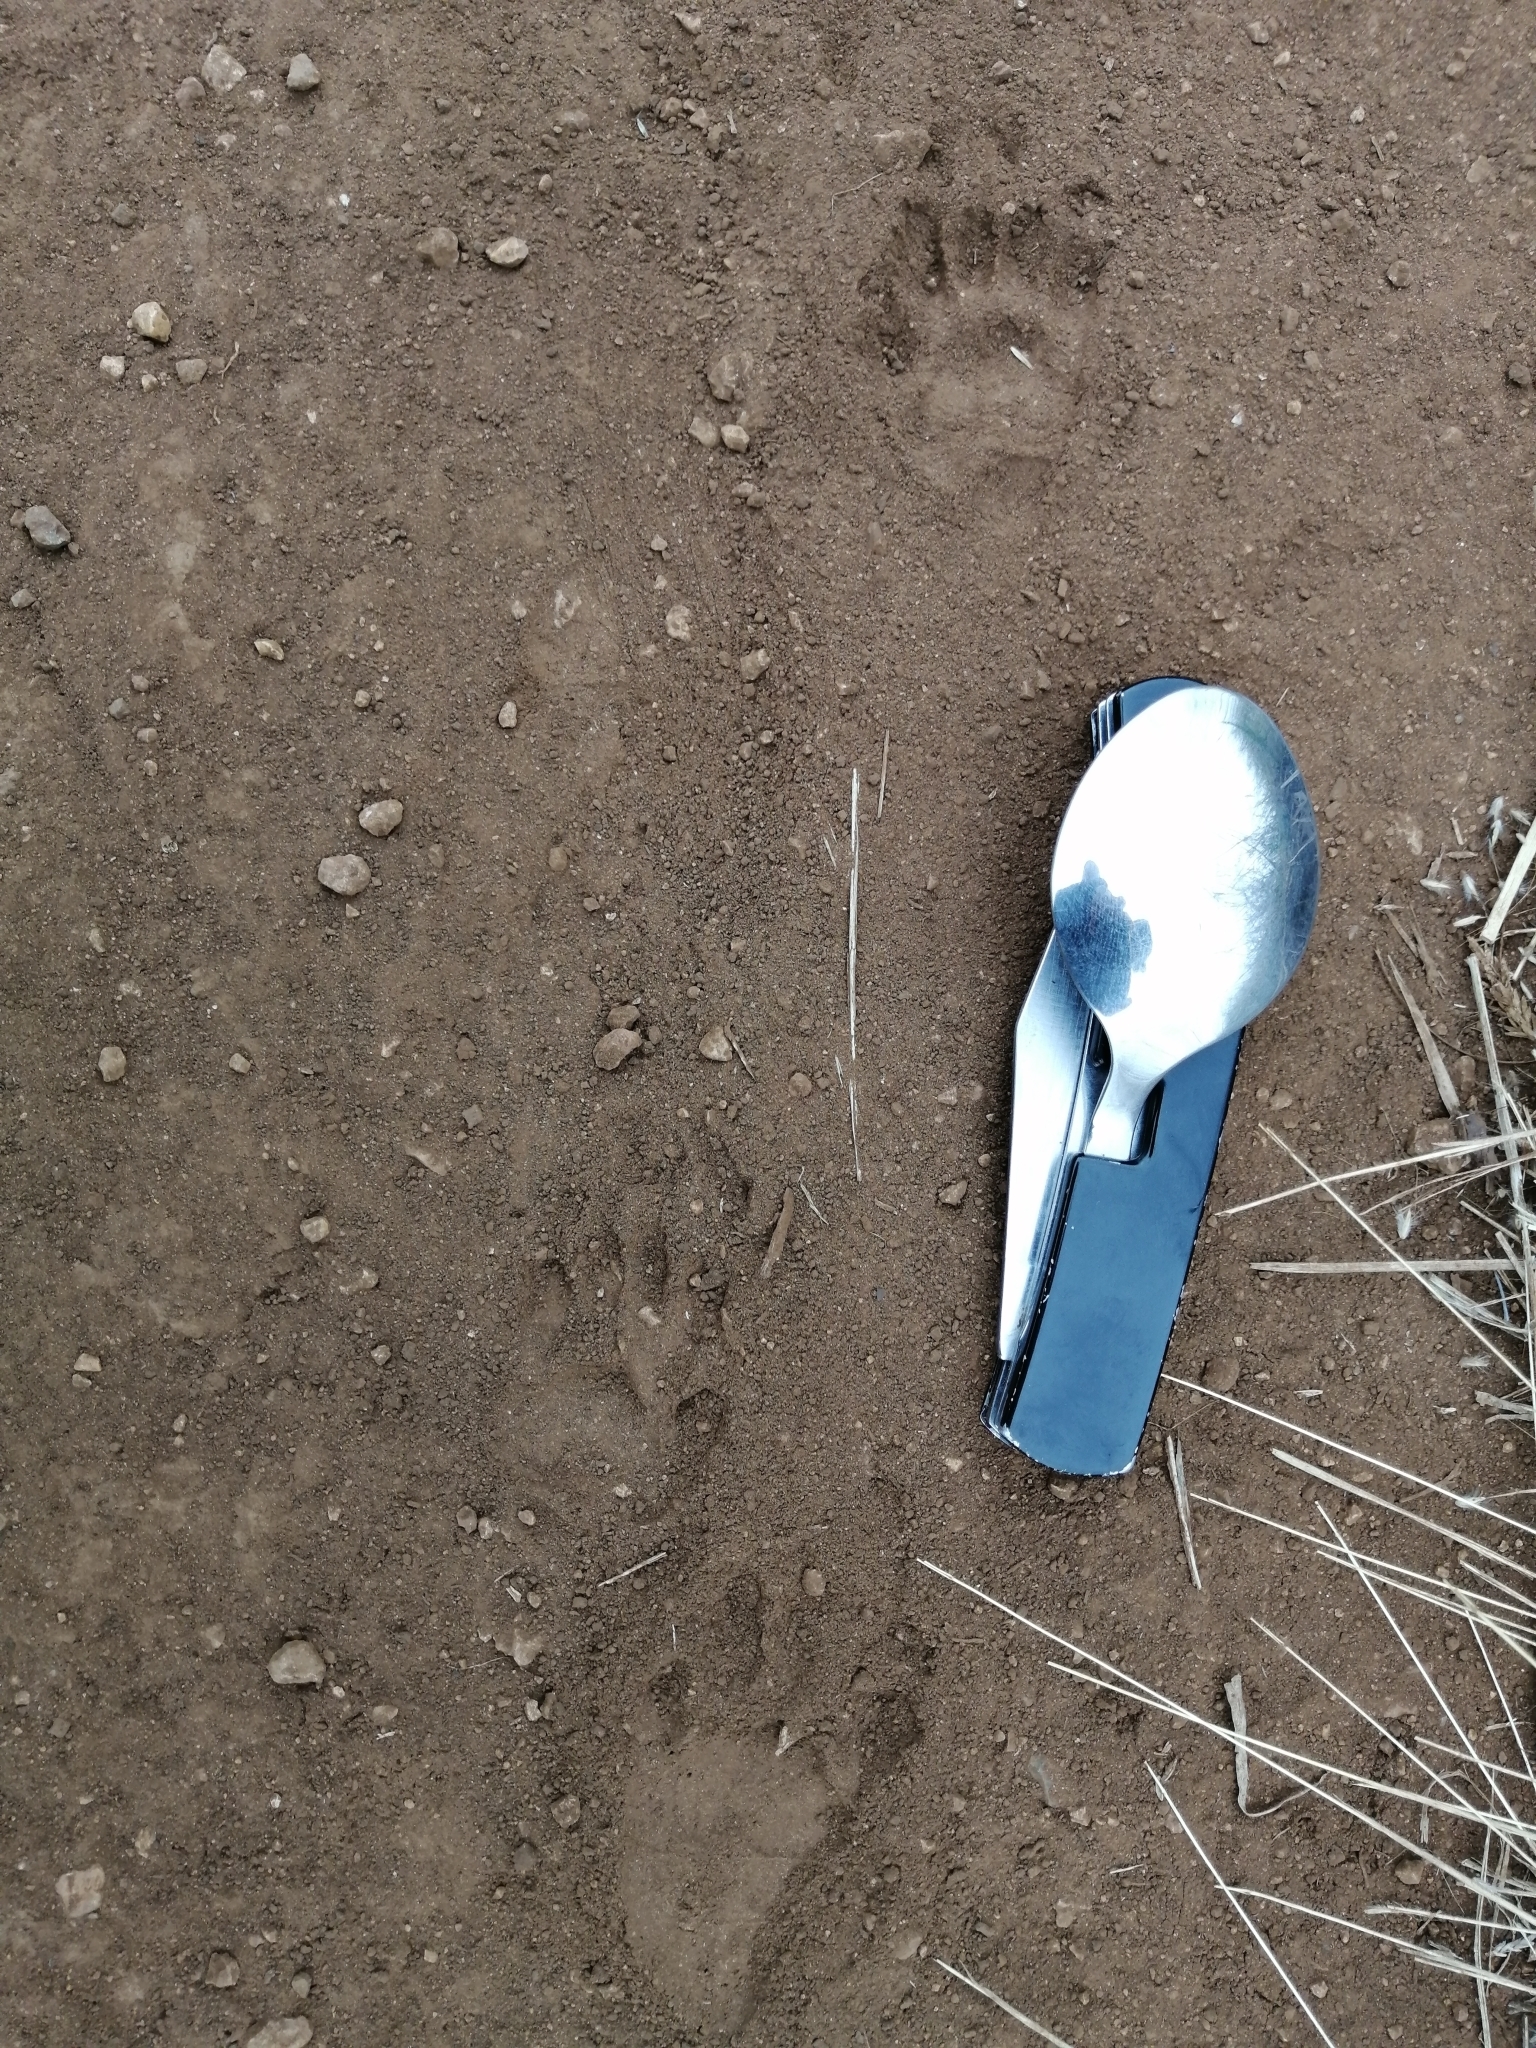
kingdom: Animalia
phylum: Chordata
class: Mammalia
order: Carnivora
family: Procyonidae
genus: Nasua
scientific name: Nasua narica
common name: White-nosed coati
